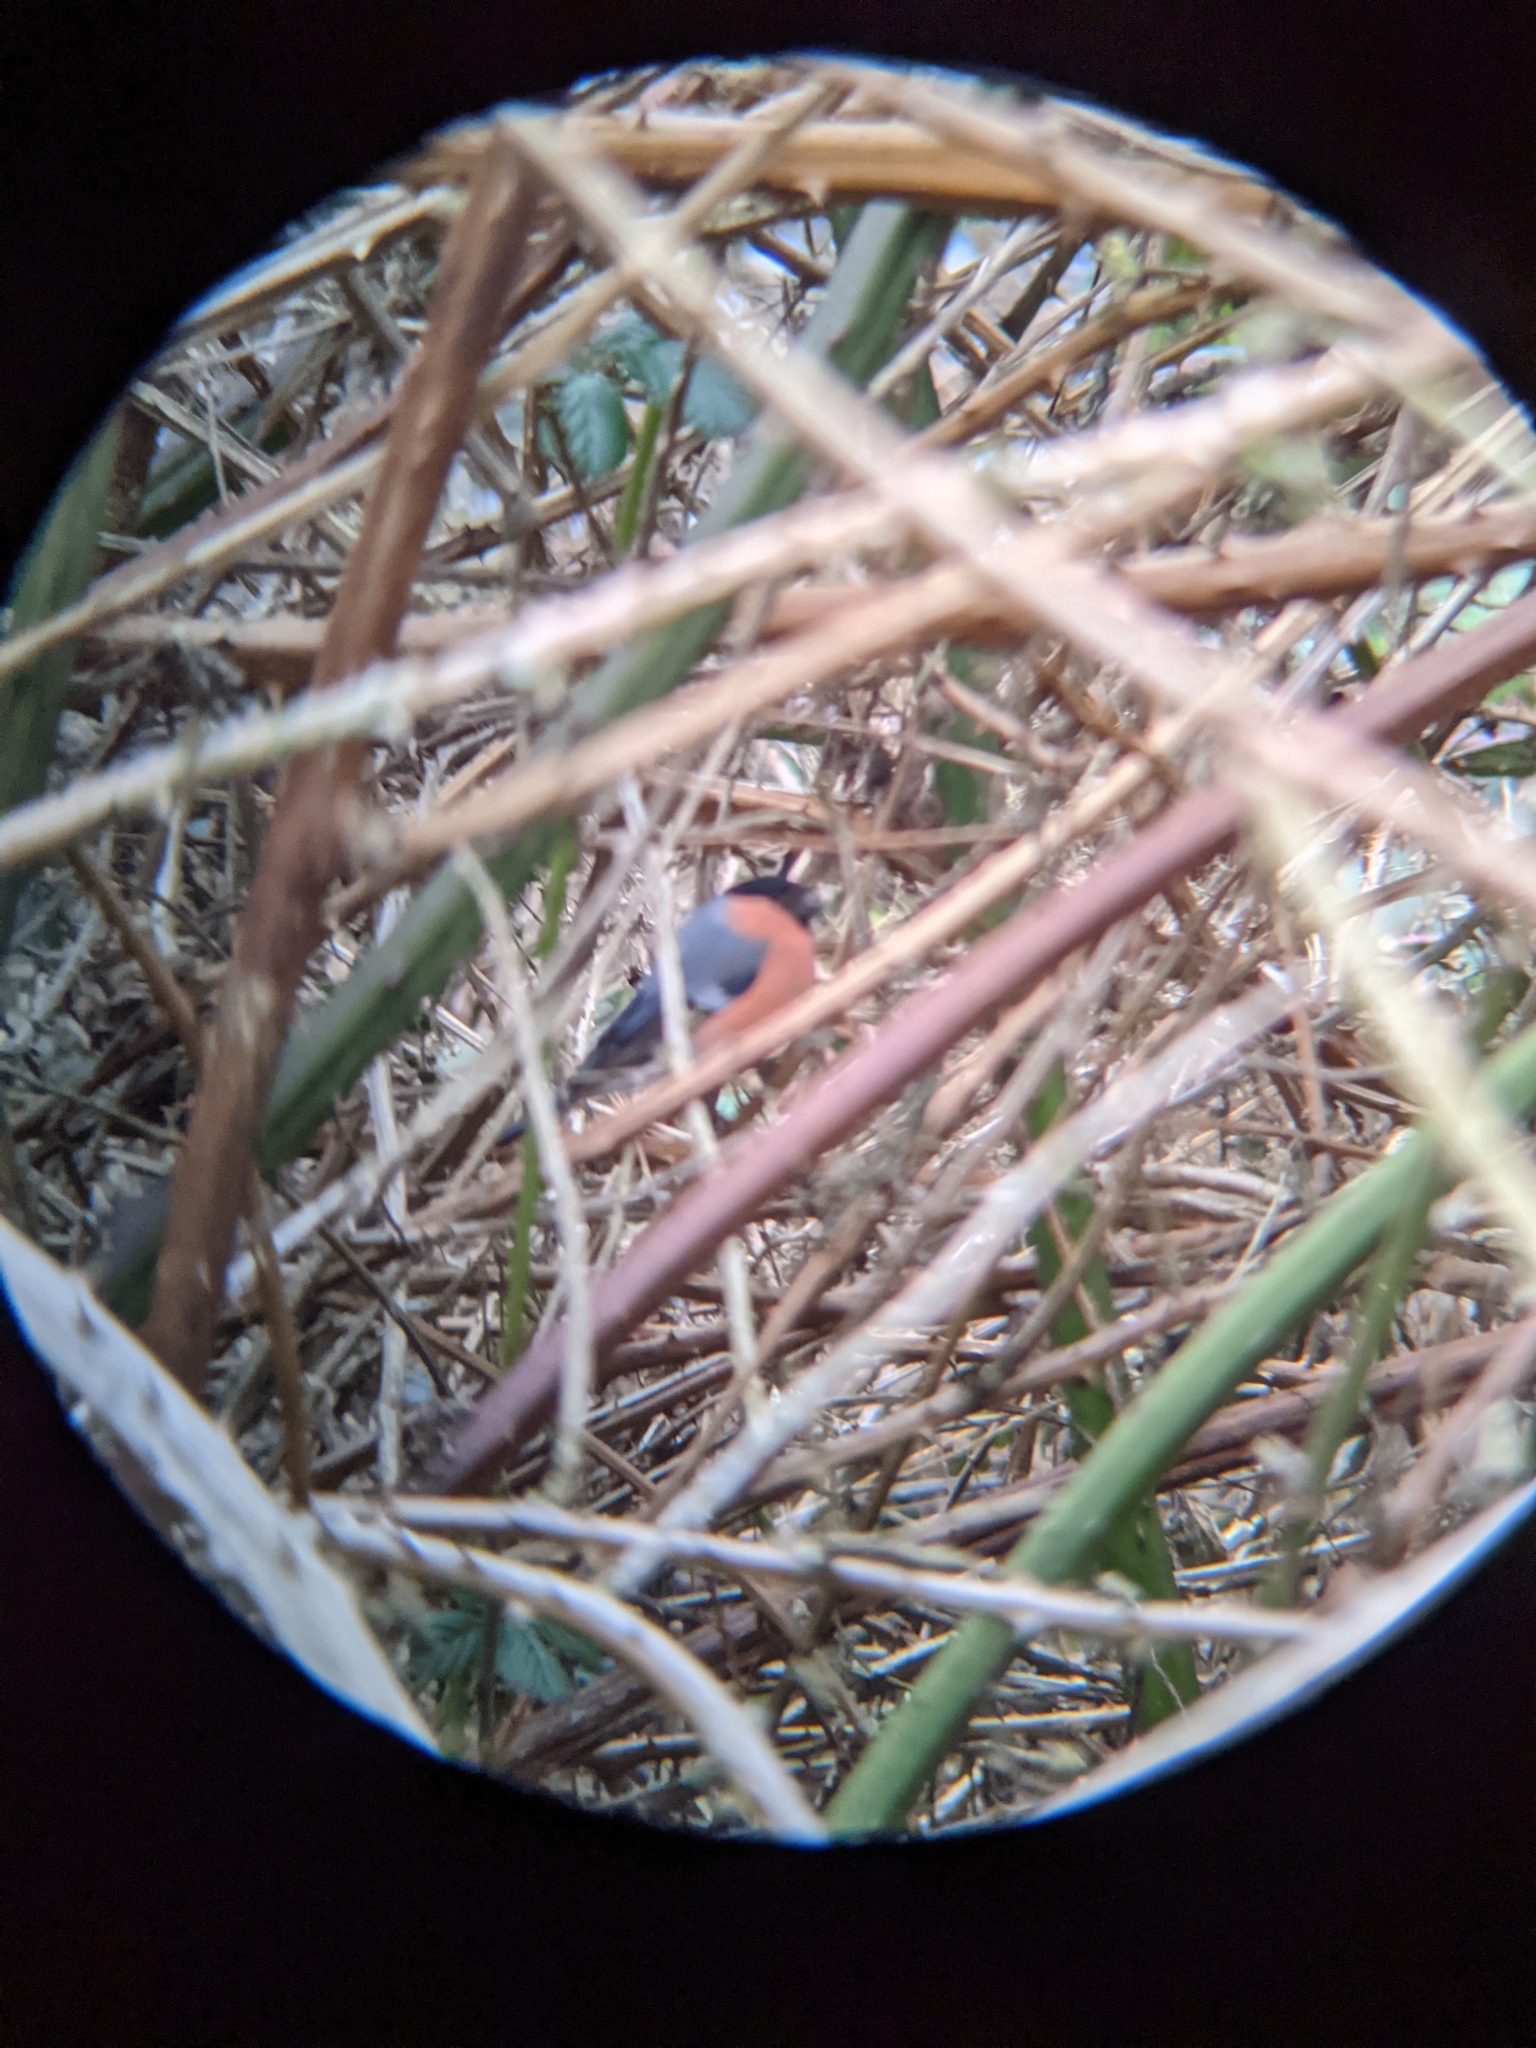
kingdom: Animalia
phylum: Chordata
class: Aves
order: Passeriformes
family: Fringillidae
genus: Pyrrhula
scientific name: Pyrrhula pyrrhula
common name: Eurasian bullfinch
